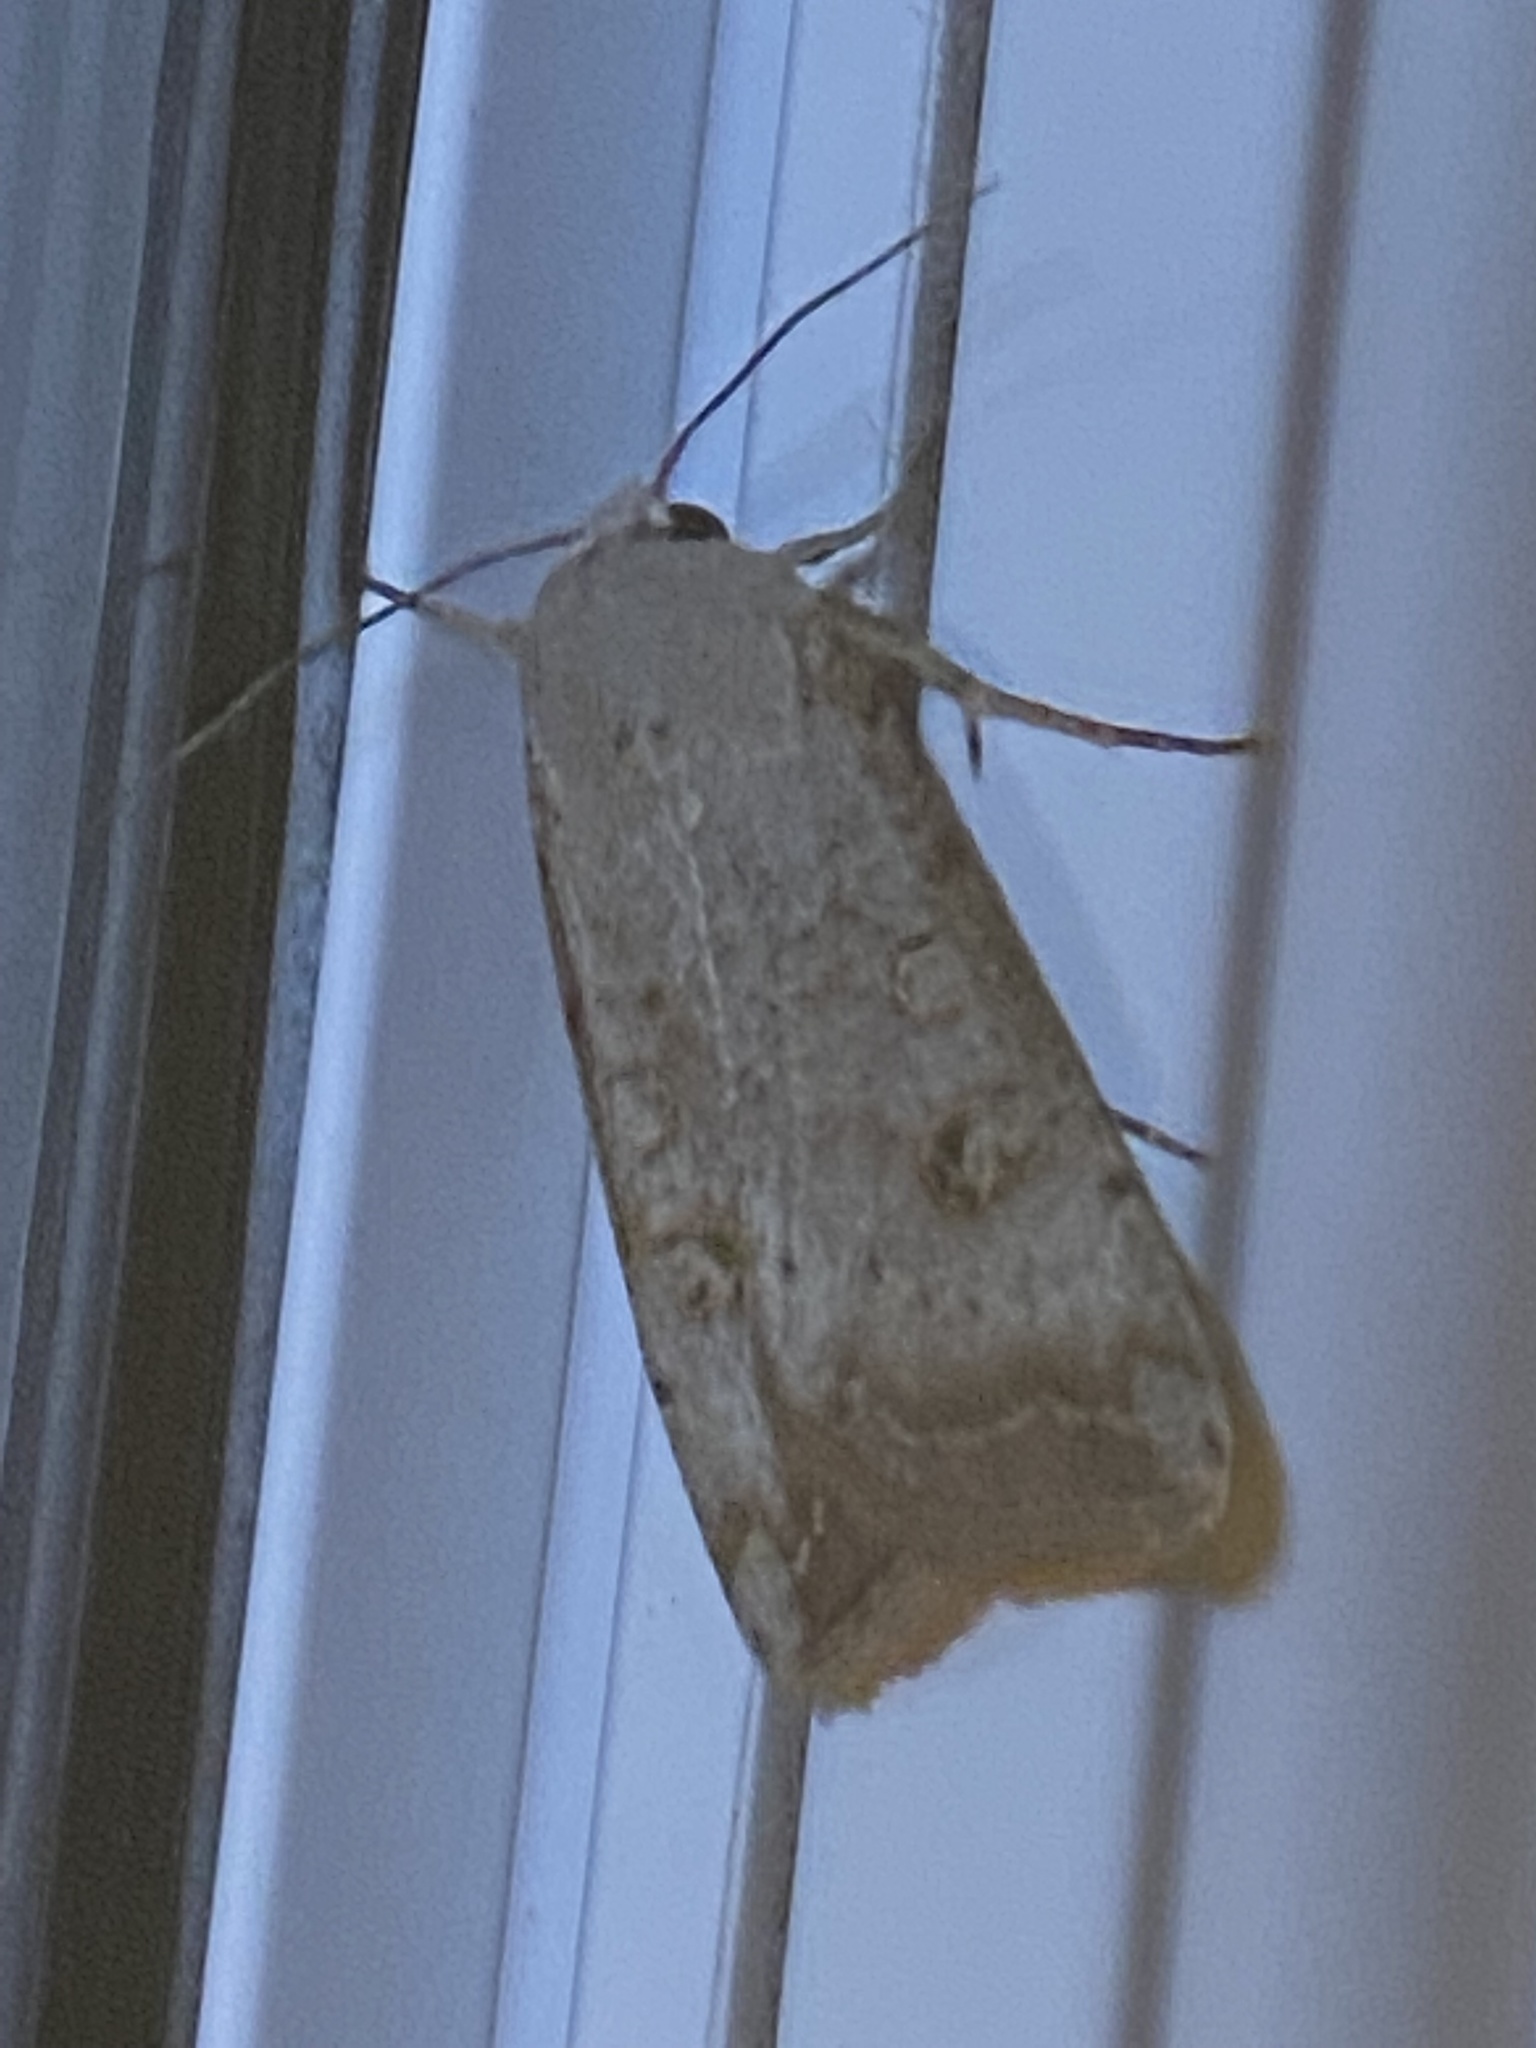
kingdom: Animalia
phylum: Arthropoda
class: Insecta
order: Lepidoptera
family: Noctuidae
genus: Anicla
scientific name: Anicla infecta
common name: Green cutworm
